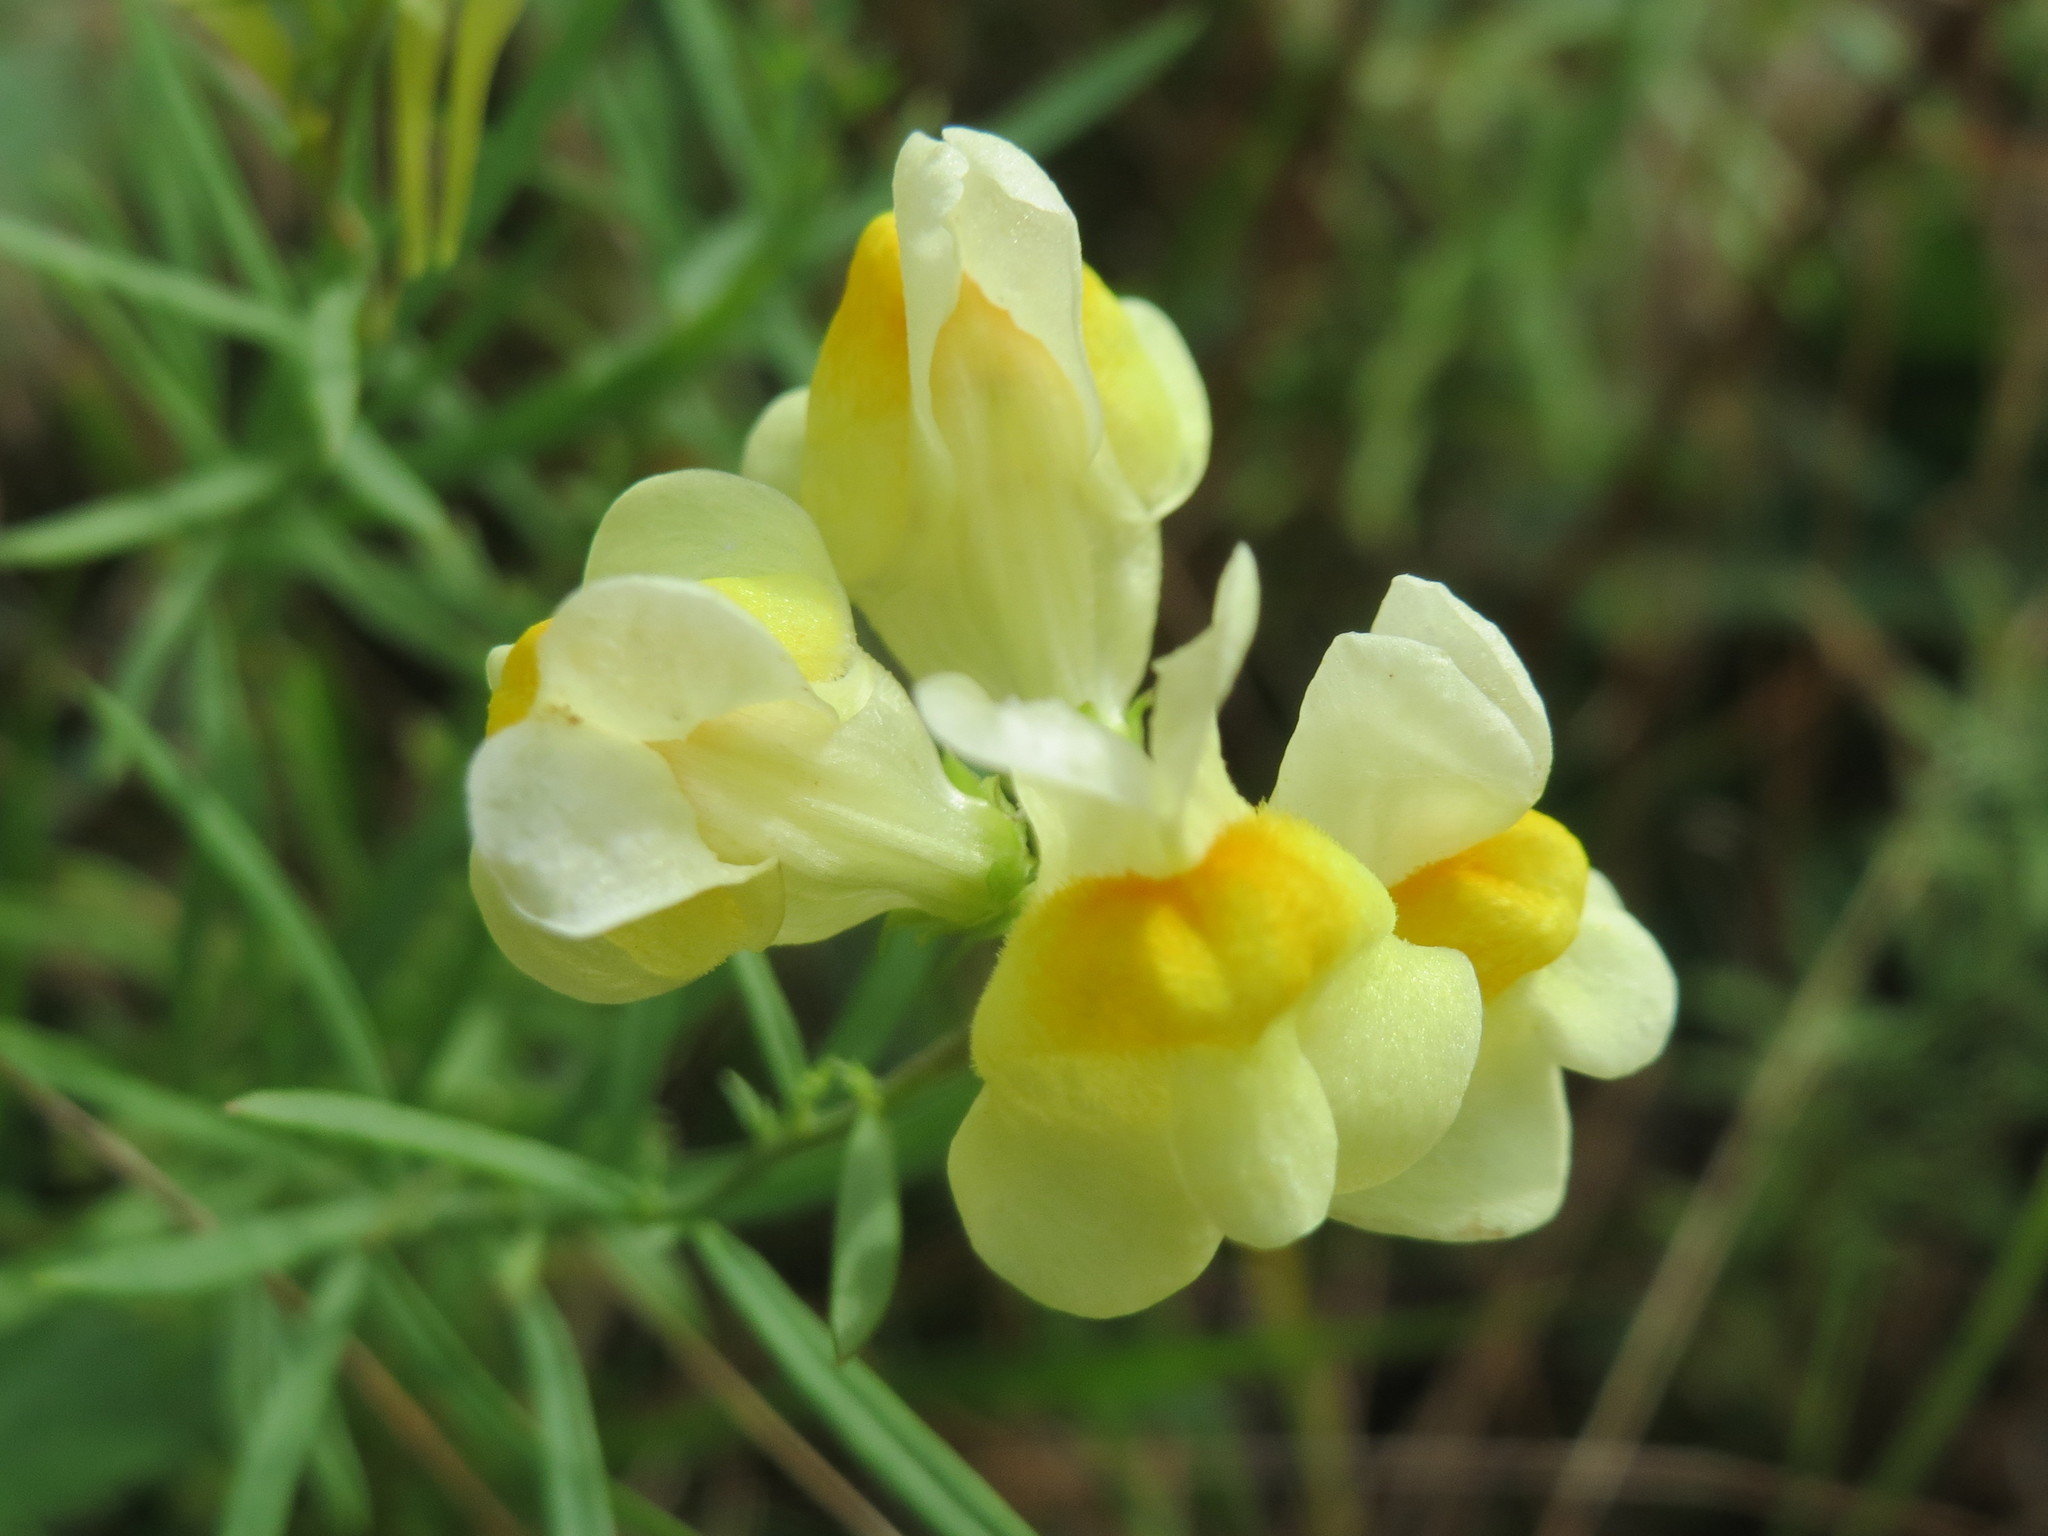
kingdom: Plantae
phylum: Tracheophyta
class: Magnoliopsida
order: Lamiales
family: Plantaginaceae
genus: Linaria
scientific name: Linaria vulgaris
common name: Butter and eggs
